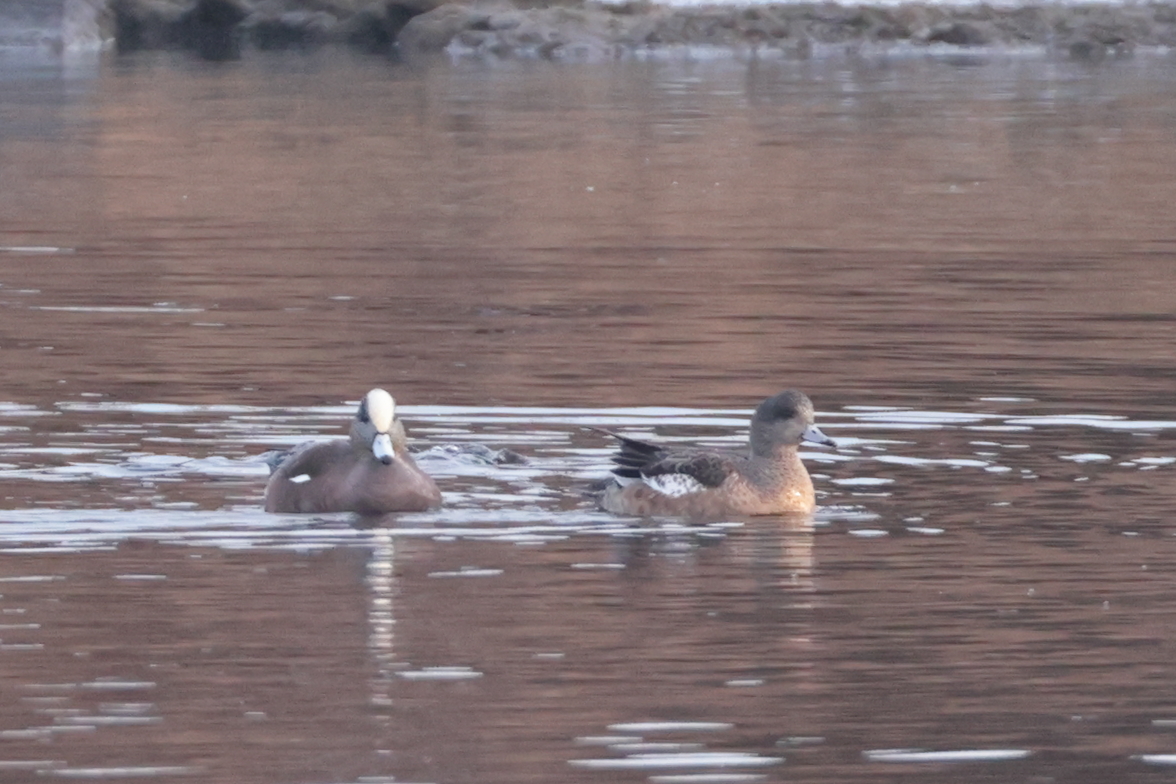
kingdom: Animalia
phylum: Chordata
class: Aves
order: Anseriformes
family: Anatidae
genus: Mareca
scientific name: Mareca americana
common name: American wigeon
